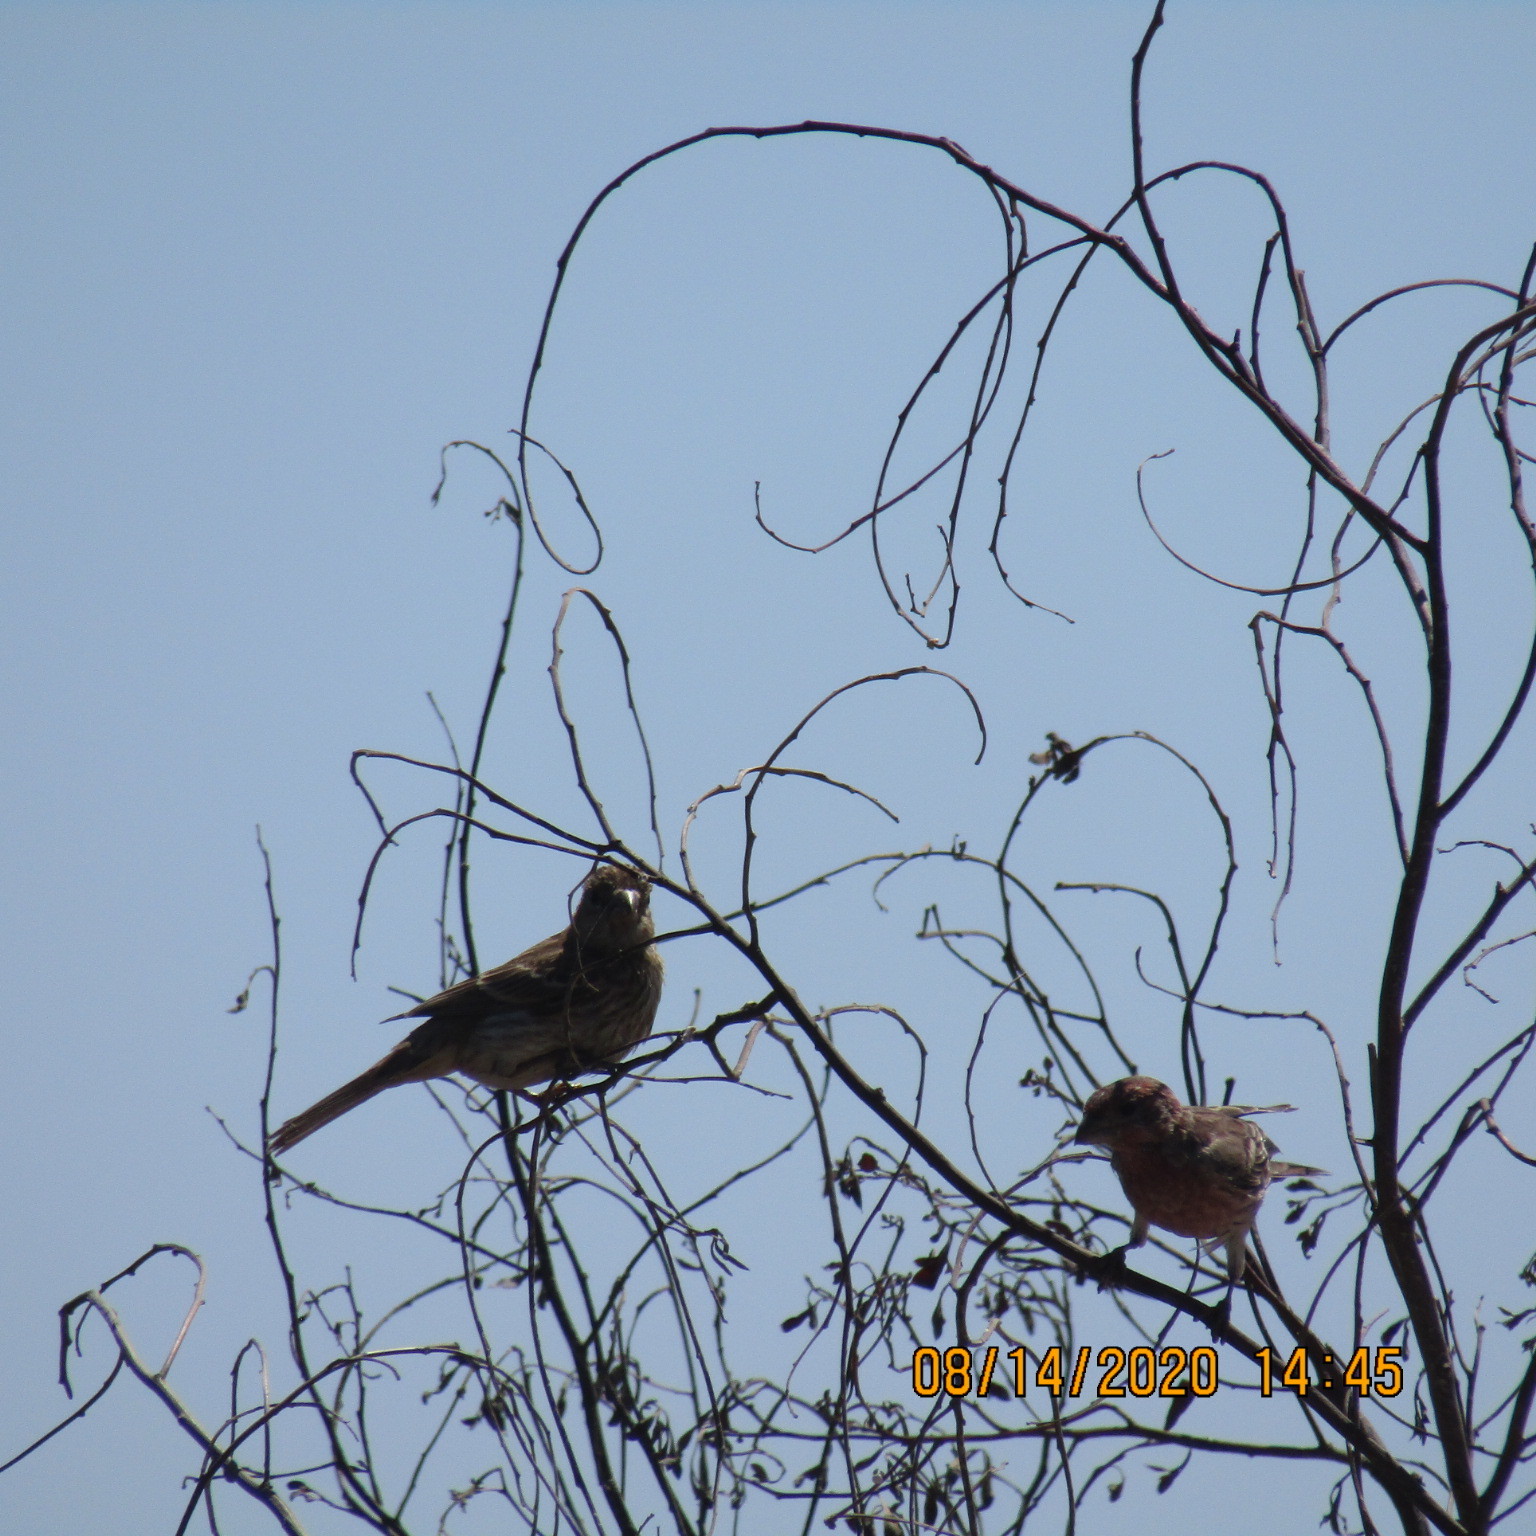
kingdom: Animalia
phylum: Chordata
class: Aves
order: Passeriformes
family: Fringillidae
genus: Haemorhous
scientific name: Haemorhous mexicanus
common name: House finch
